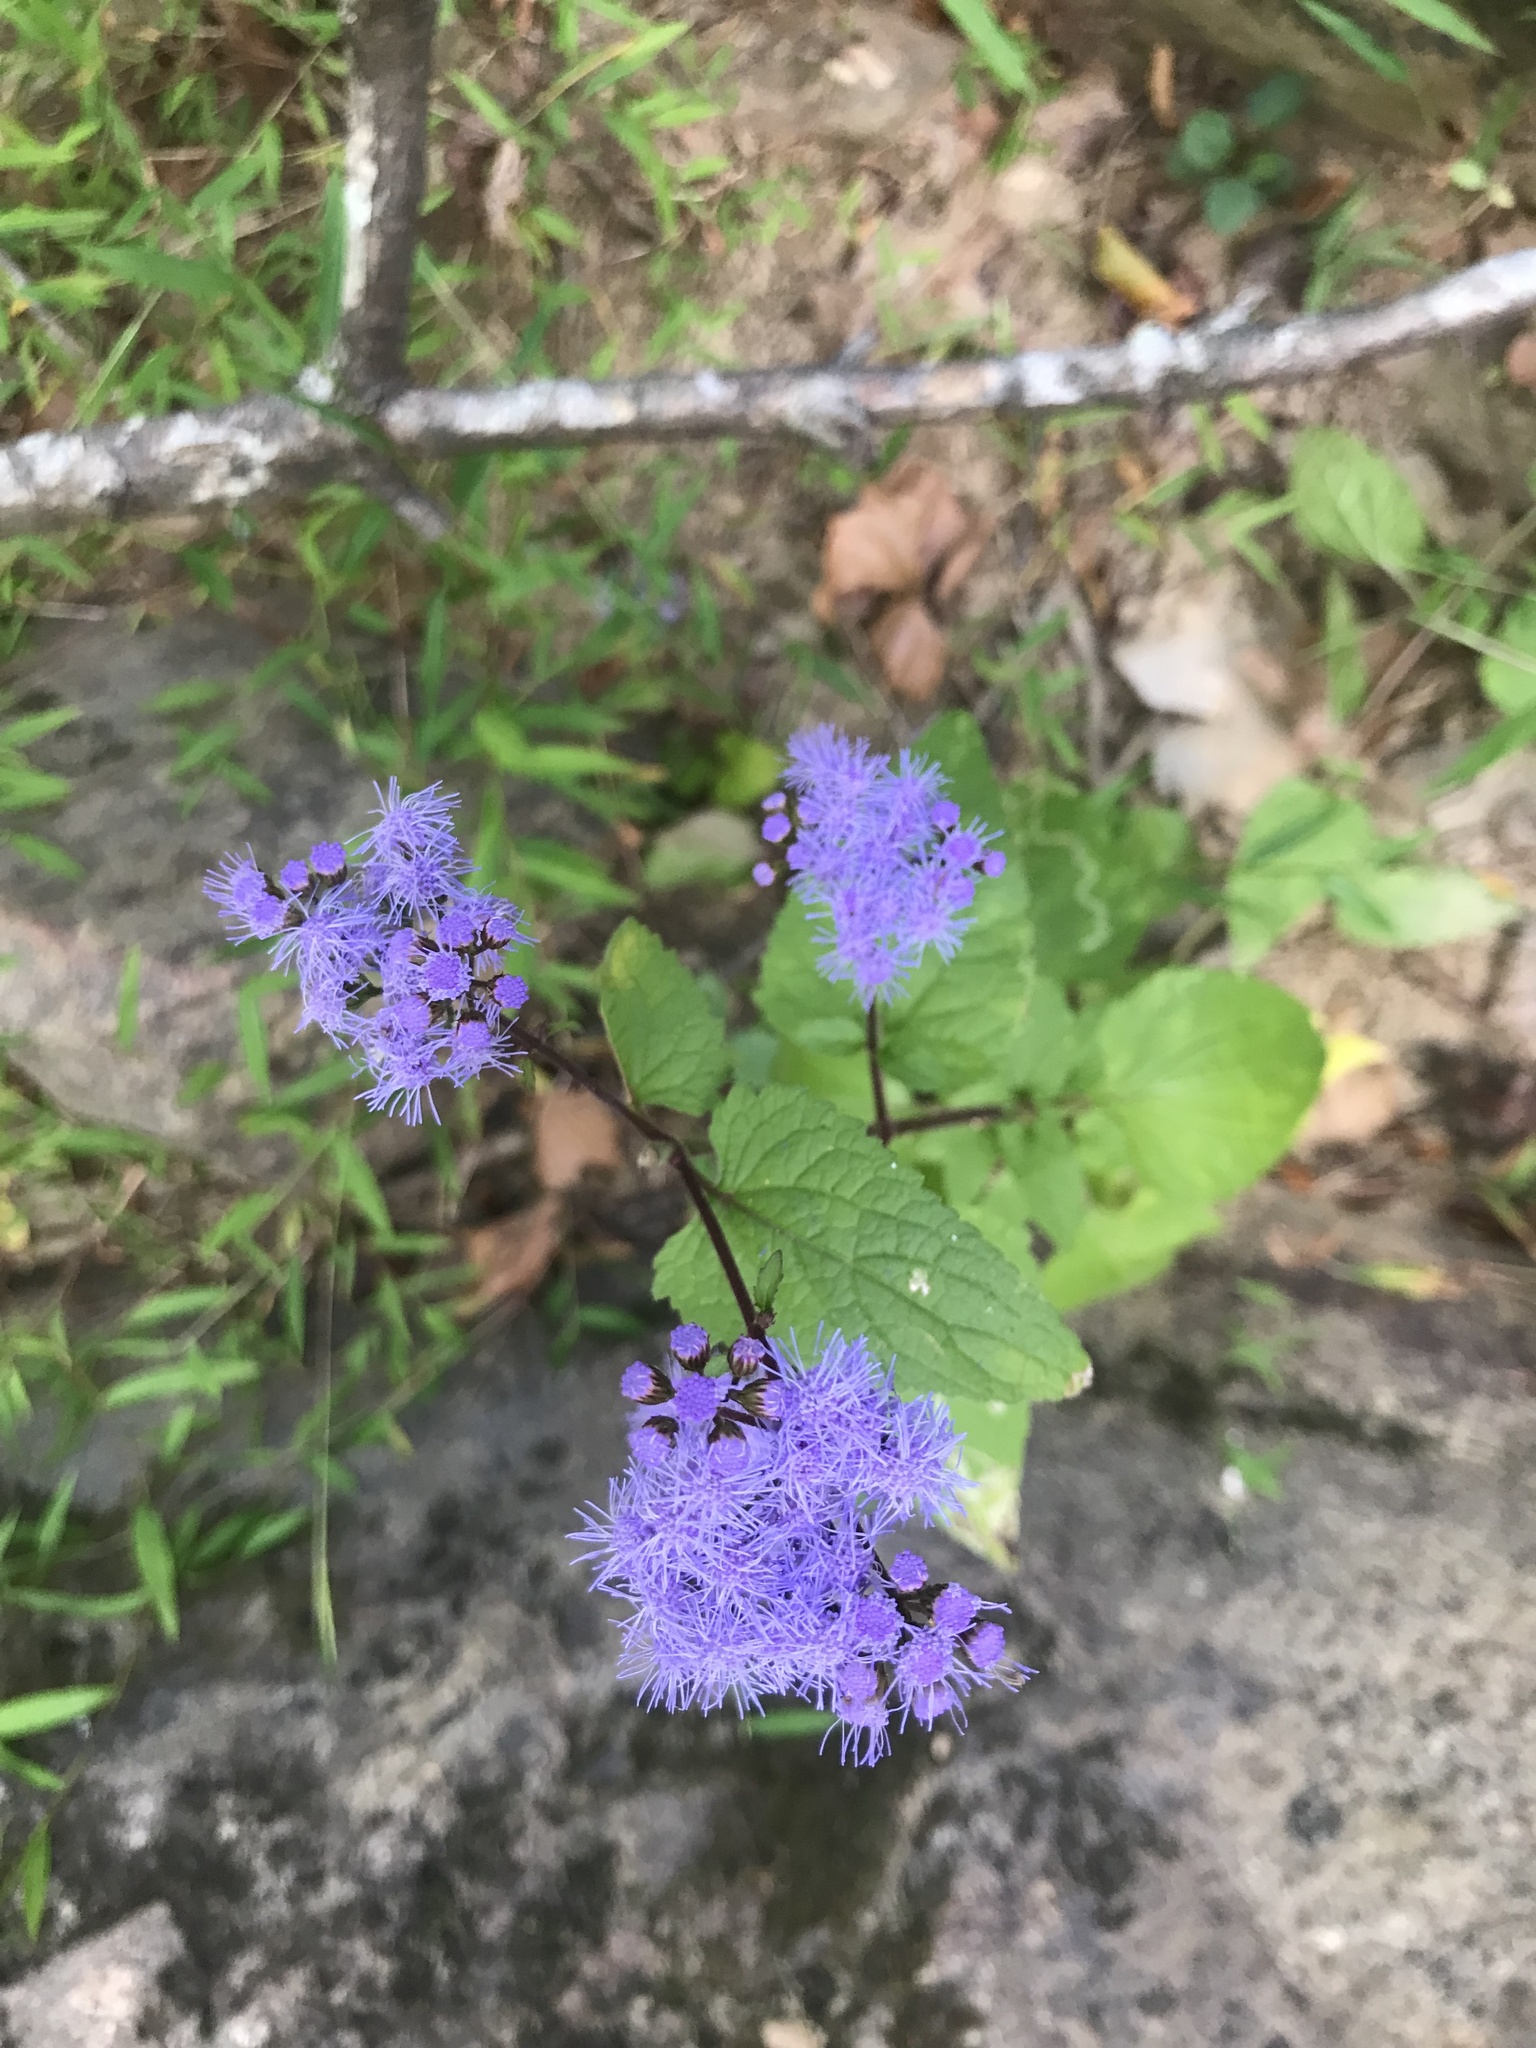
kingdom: Plantae
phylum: Tracheophyta
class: Magnoliopsida
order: Asterales
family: Asteraceae
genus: Conoclinium
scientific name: Conoclinium coelestinum
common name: Blue mistflower
